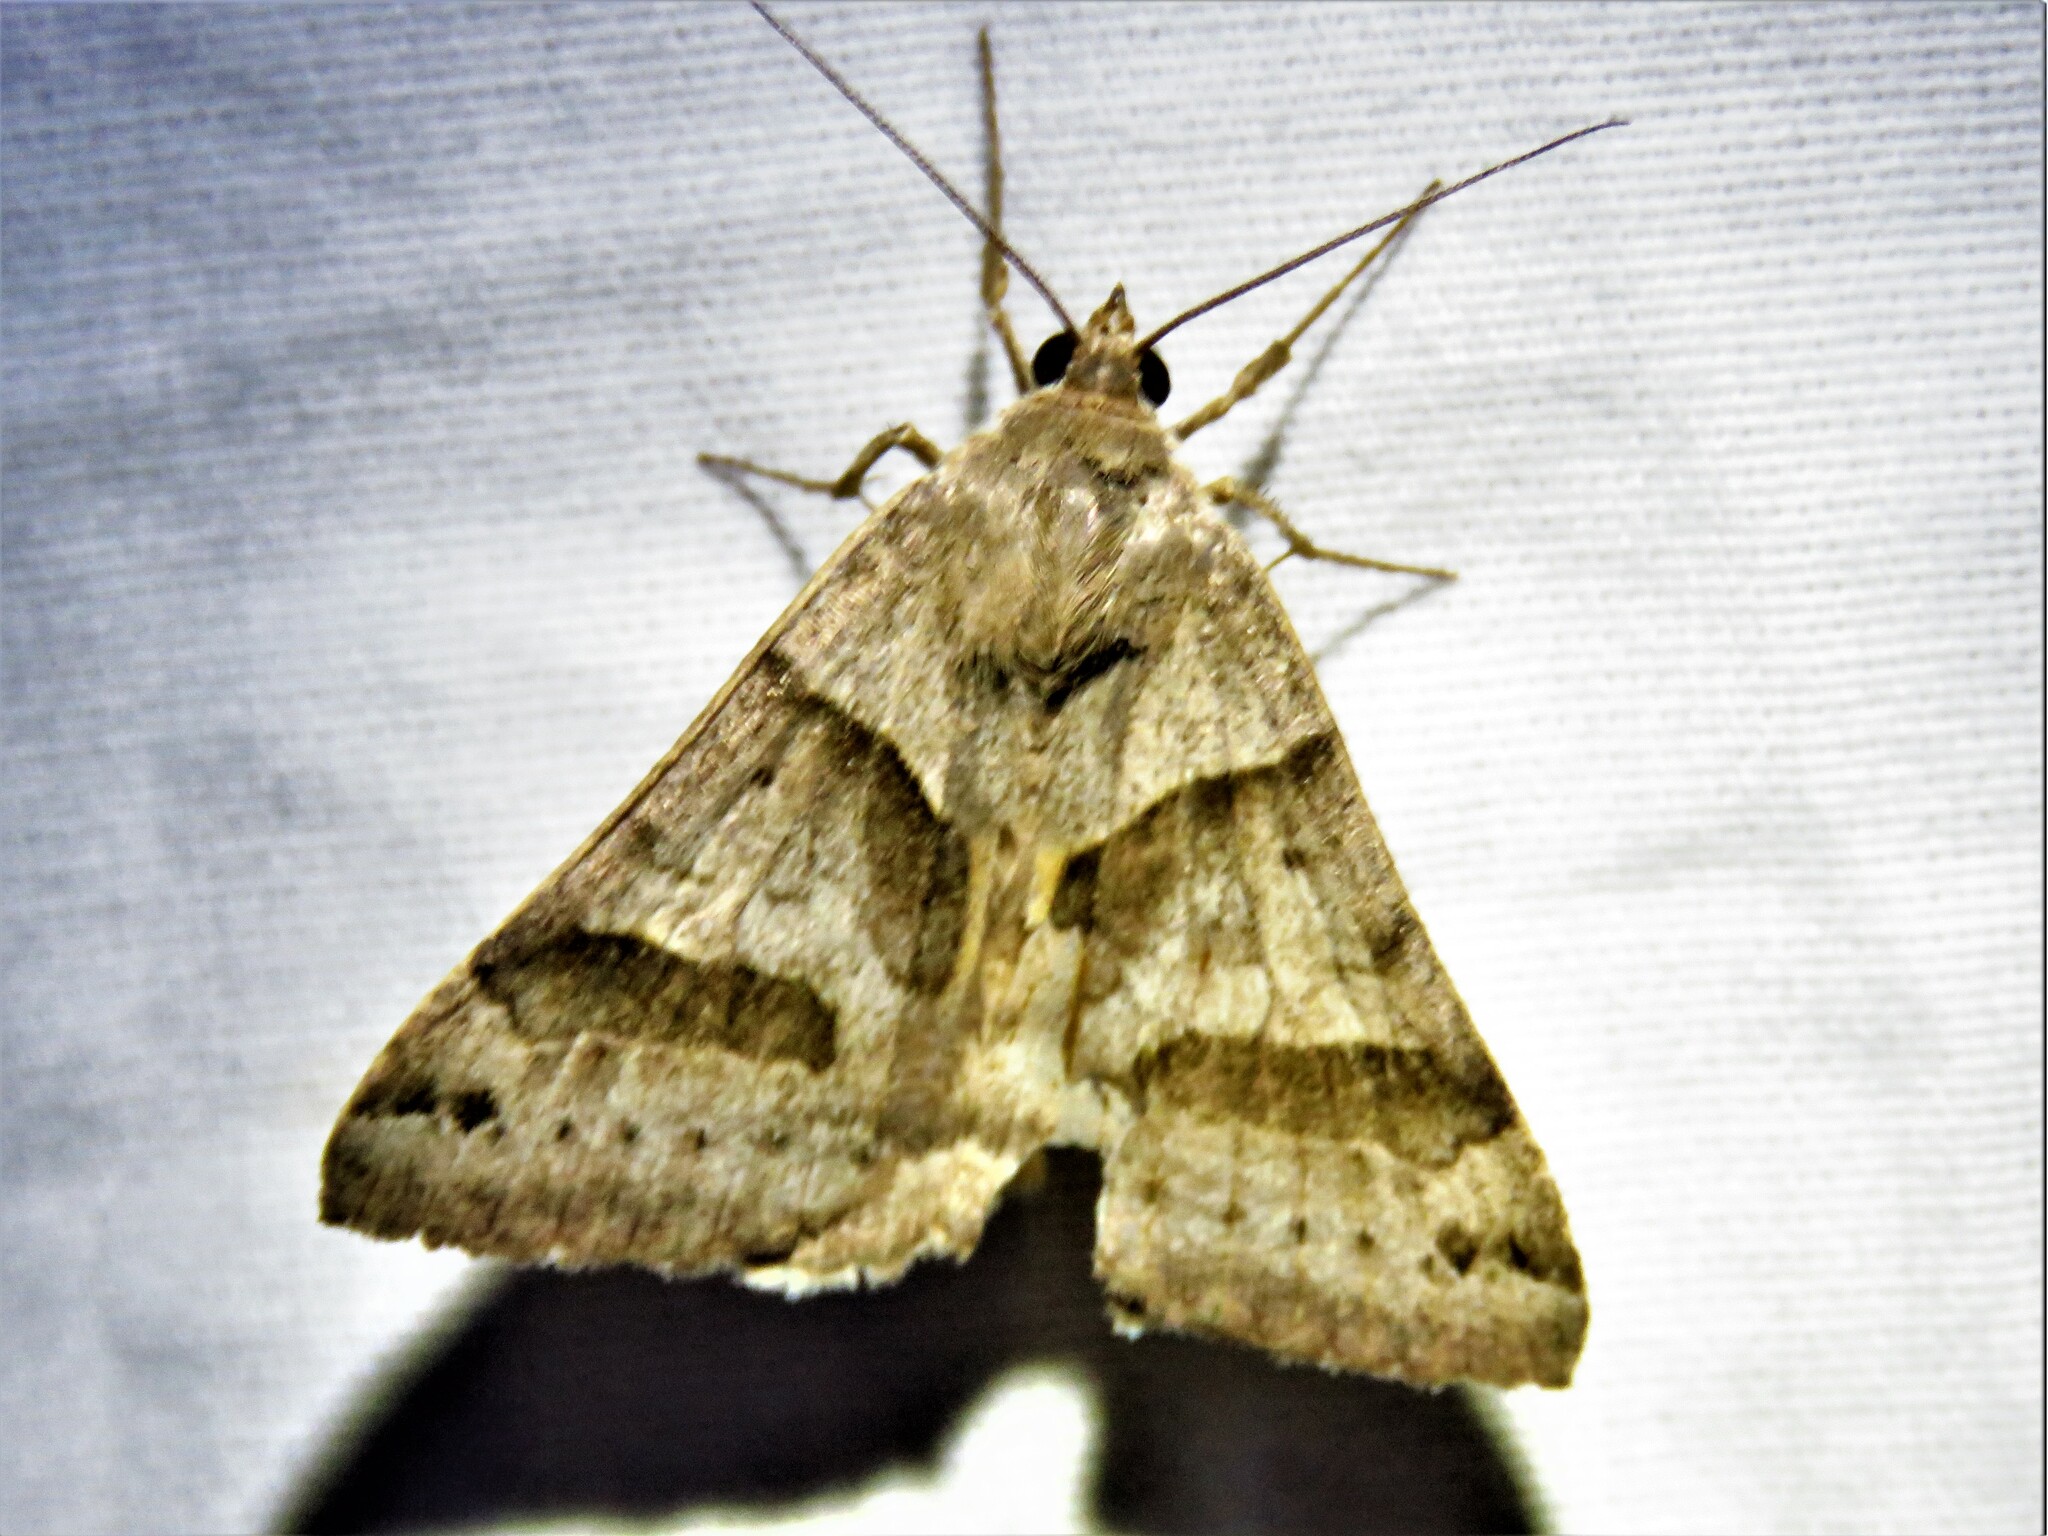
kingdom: Animalia
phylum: Arthropoda
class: Insecta
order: Lepidoptera
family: Erebidae
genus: Caenurgina
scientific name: Caenurgina erechtea
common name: Forage looper moth
